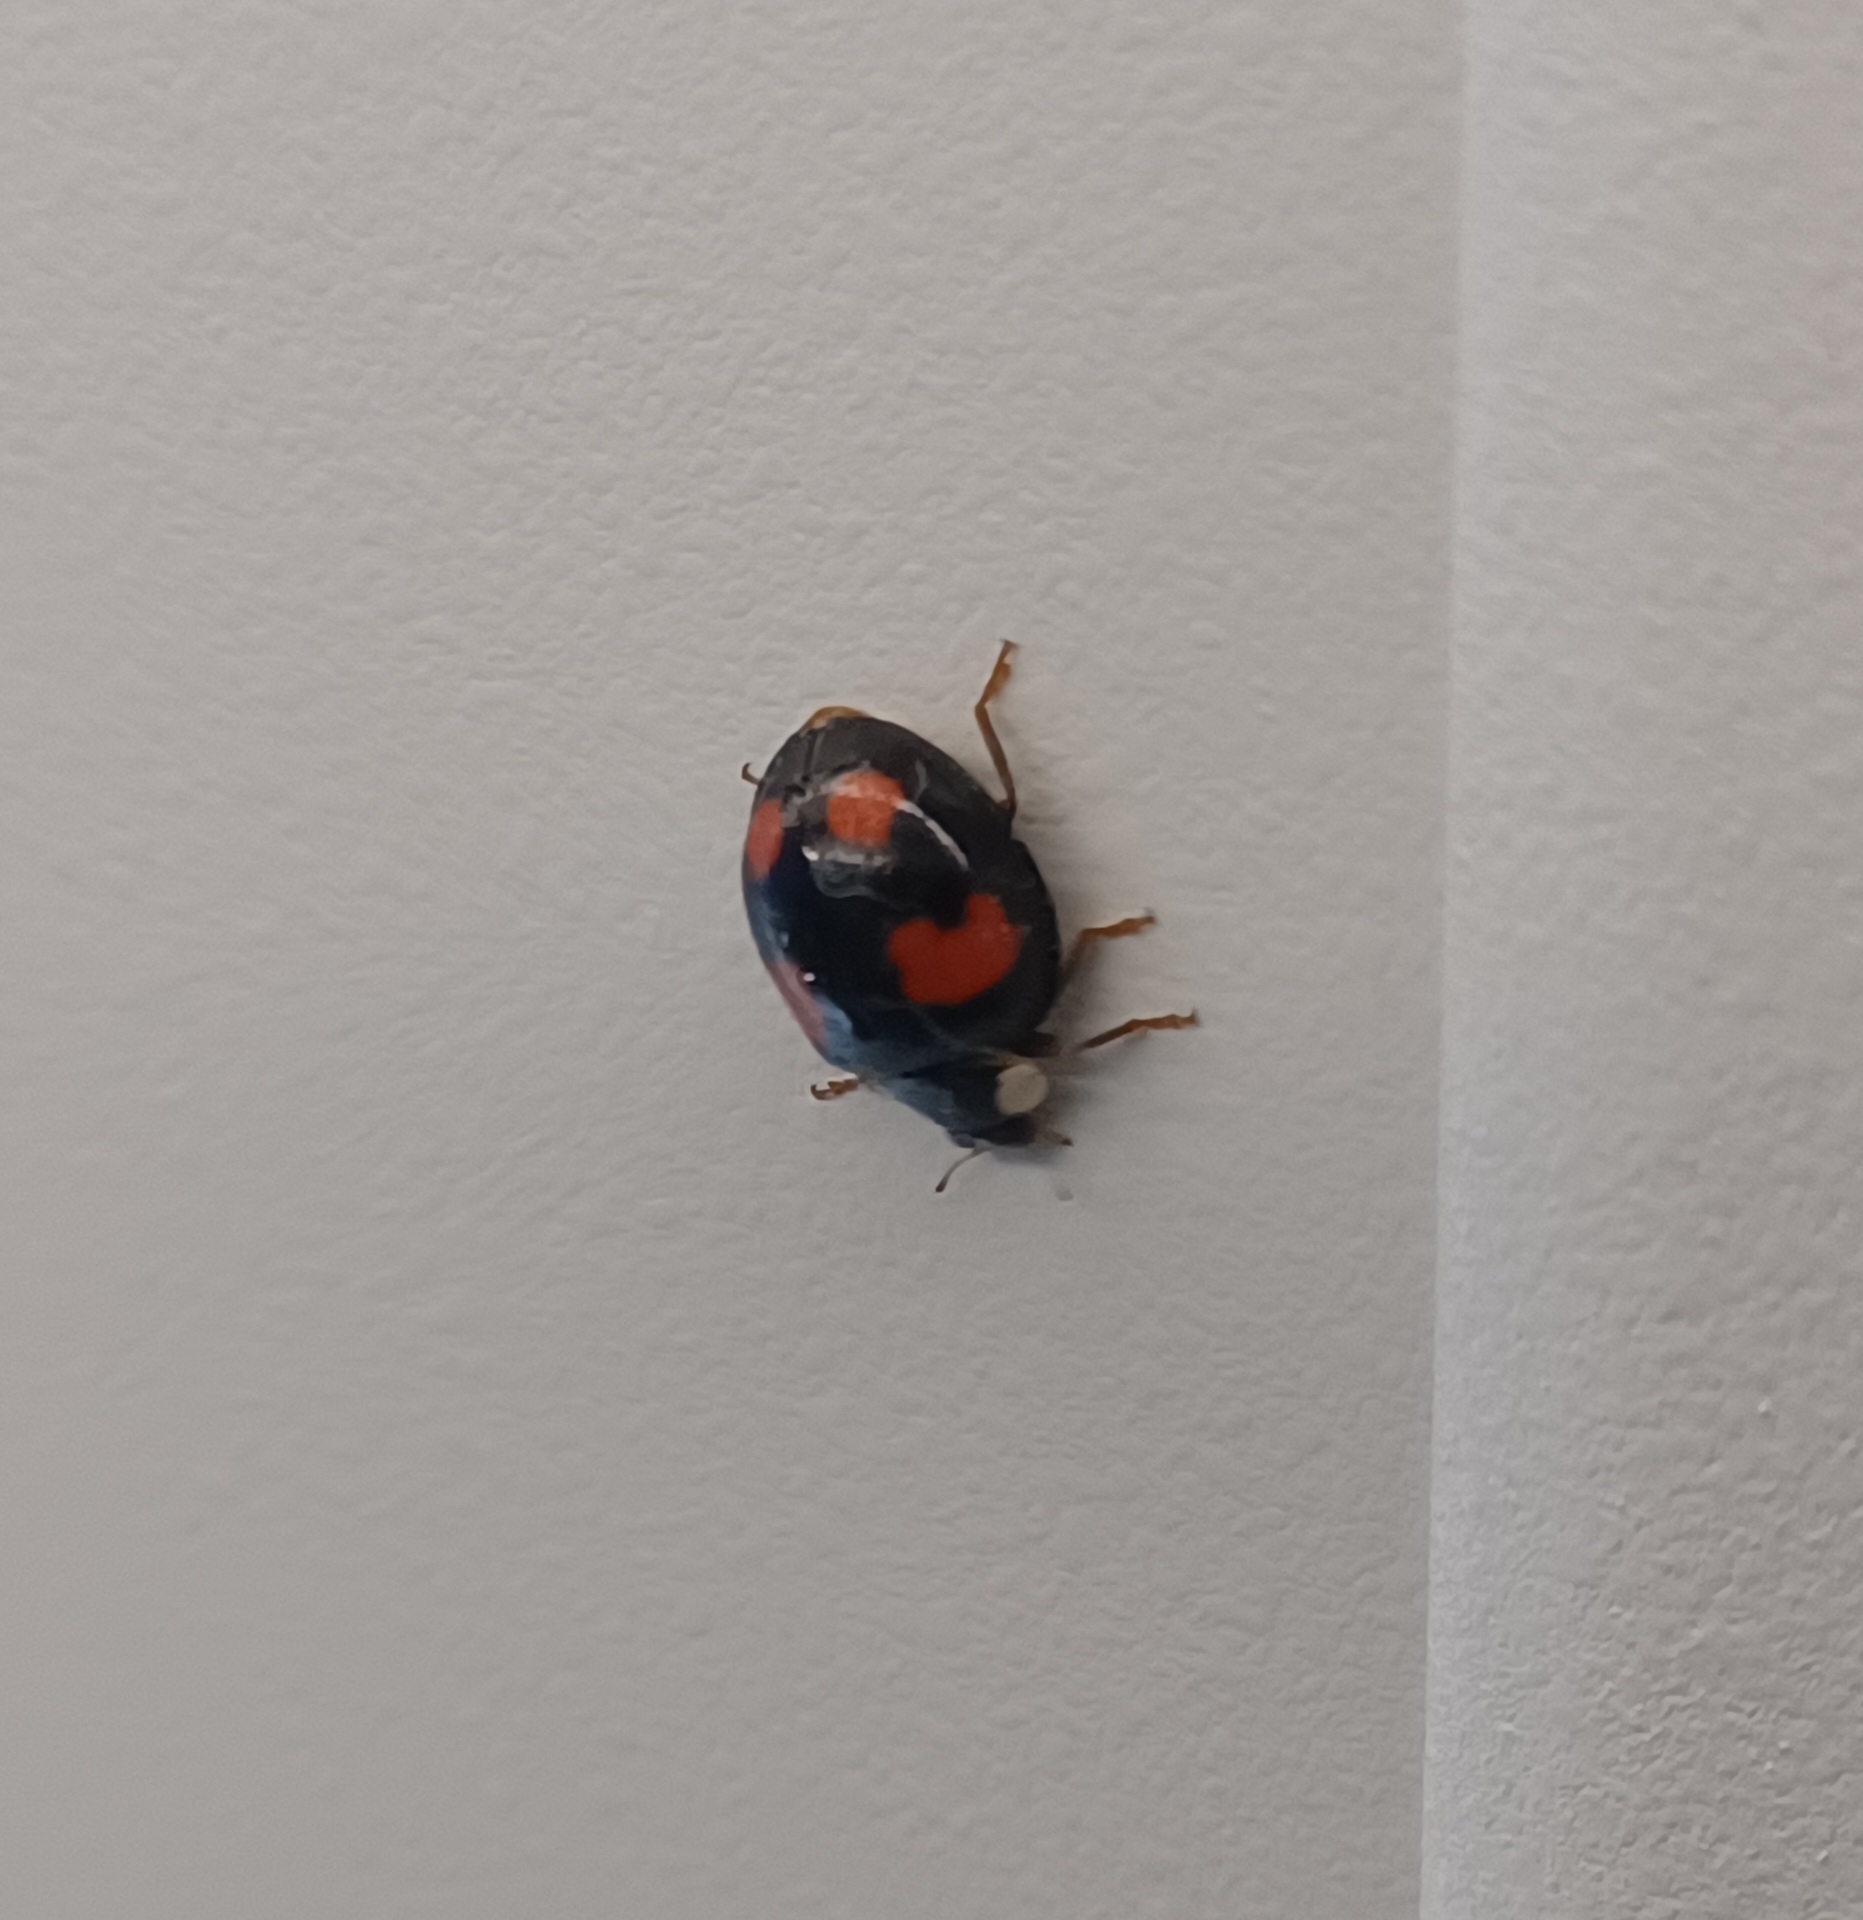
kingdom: Animalia
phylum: Arthropoda
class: Insecta
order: Coleoptera
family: Coccinellidae
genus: Harmonia
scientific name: Harmonia axyridis
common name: Harlequin ladybird
